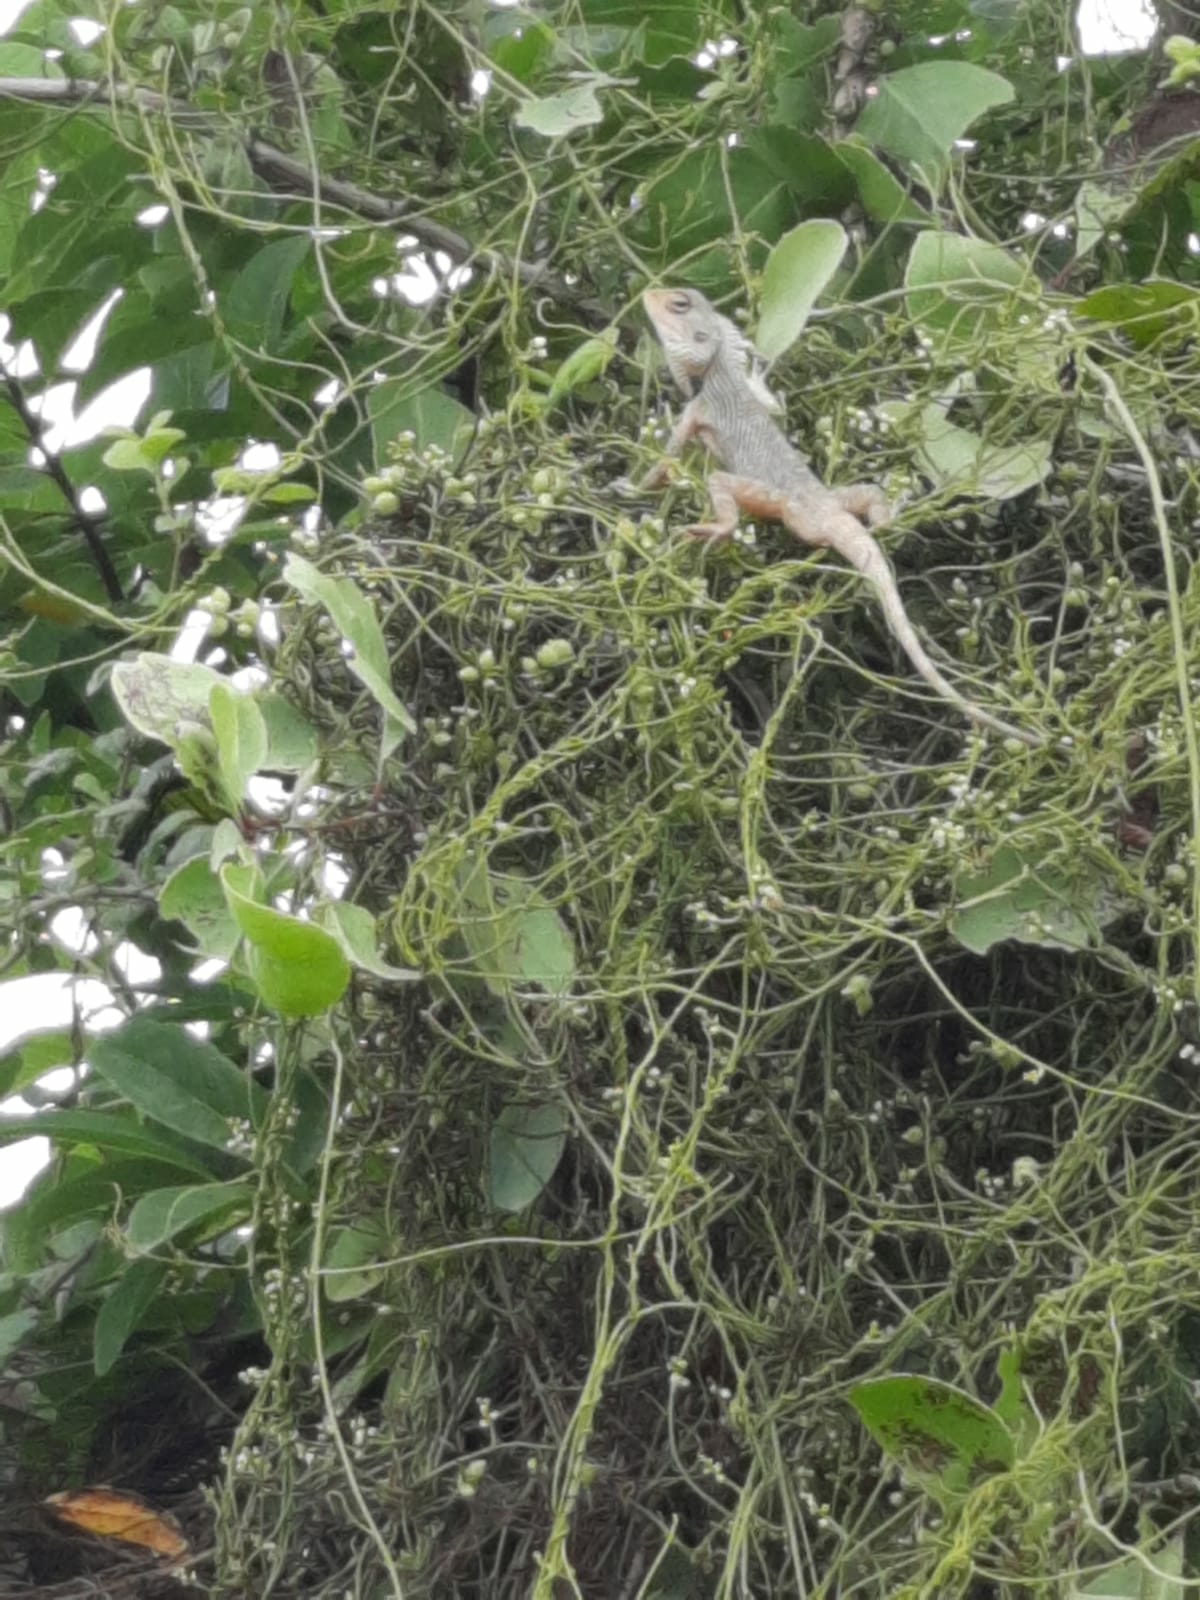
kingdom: Animalia
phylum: Chordata
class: Squamata
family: Agamidae
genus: Calotes
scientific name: Calotes versicolor
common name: Oriental garden lizard
